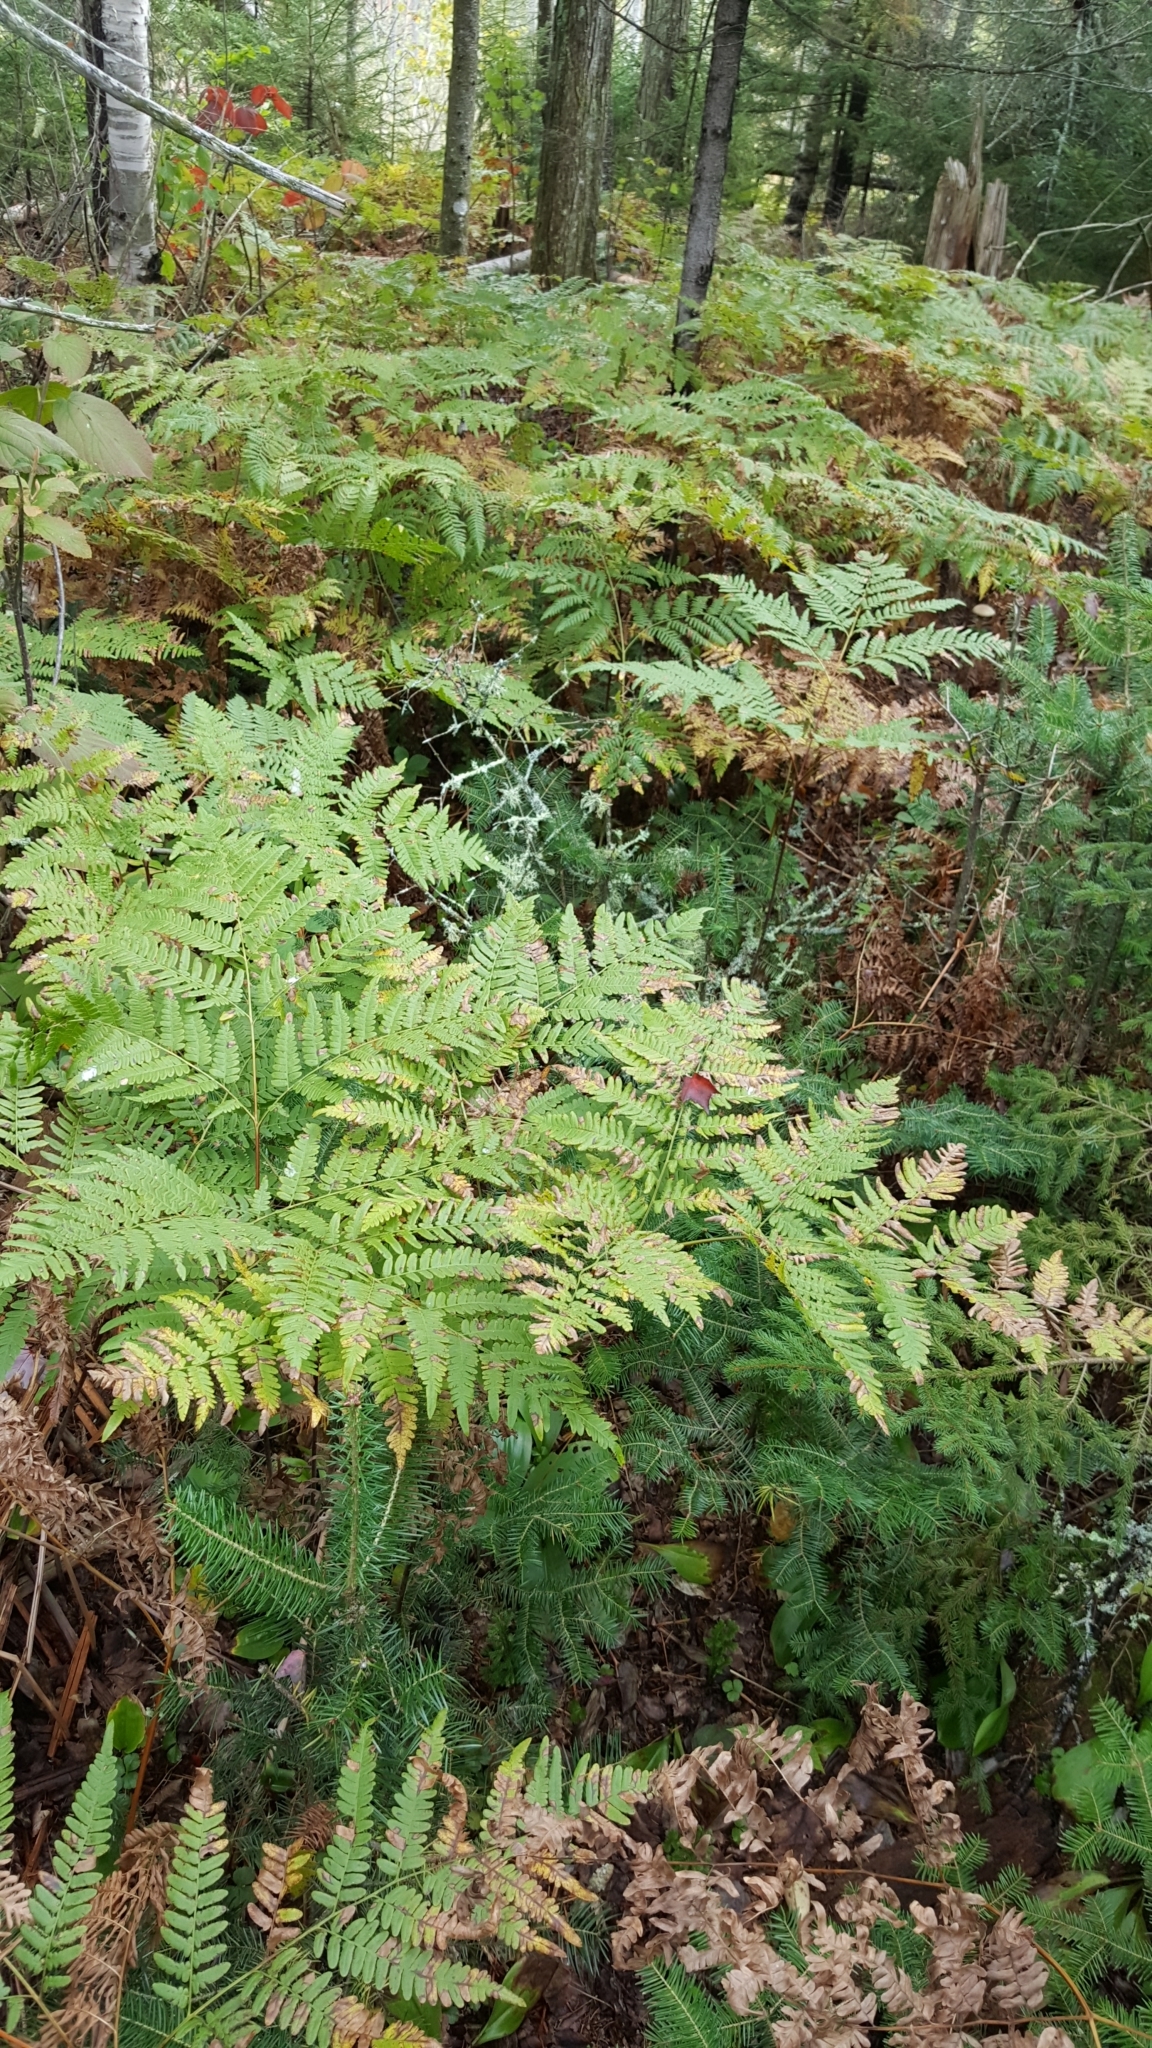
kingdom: Plantae
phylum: Tracheophyta
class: Polypodiopsida
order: Polypodiales
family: Dennstaedtiaceae
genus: Pteridium
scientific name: Pteridium aquilinum
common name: Bracken
